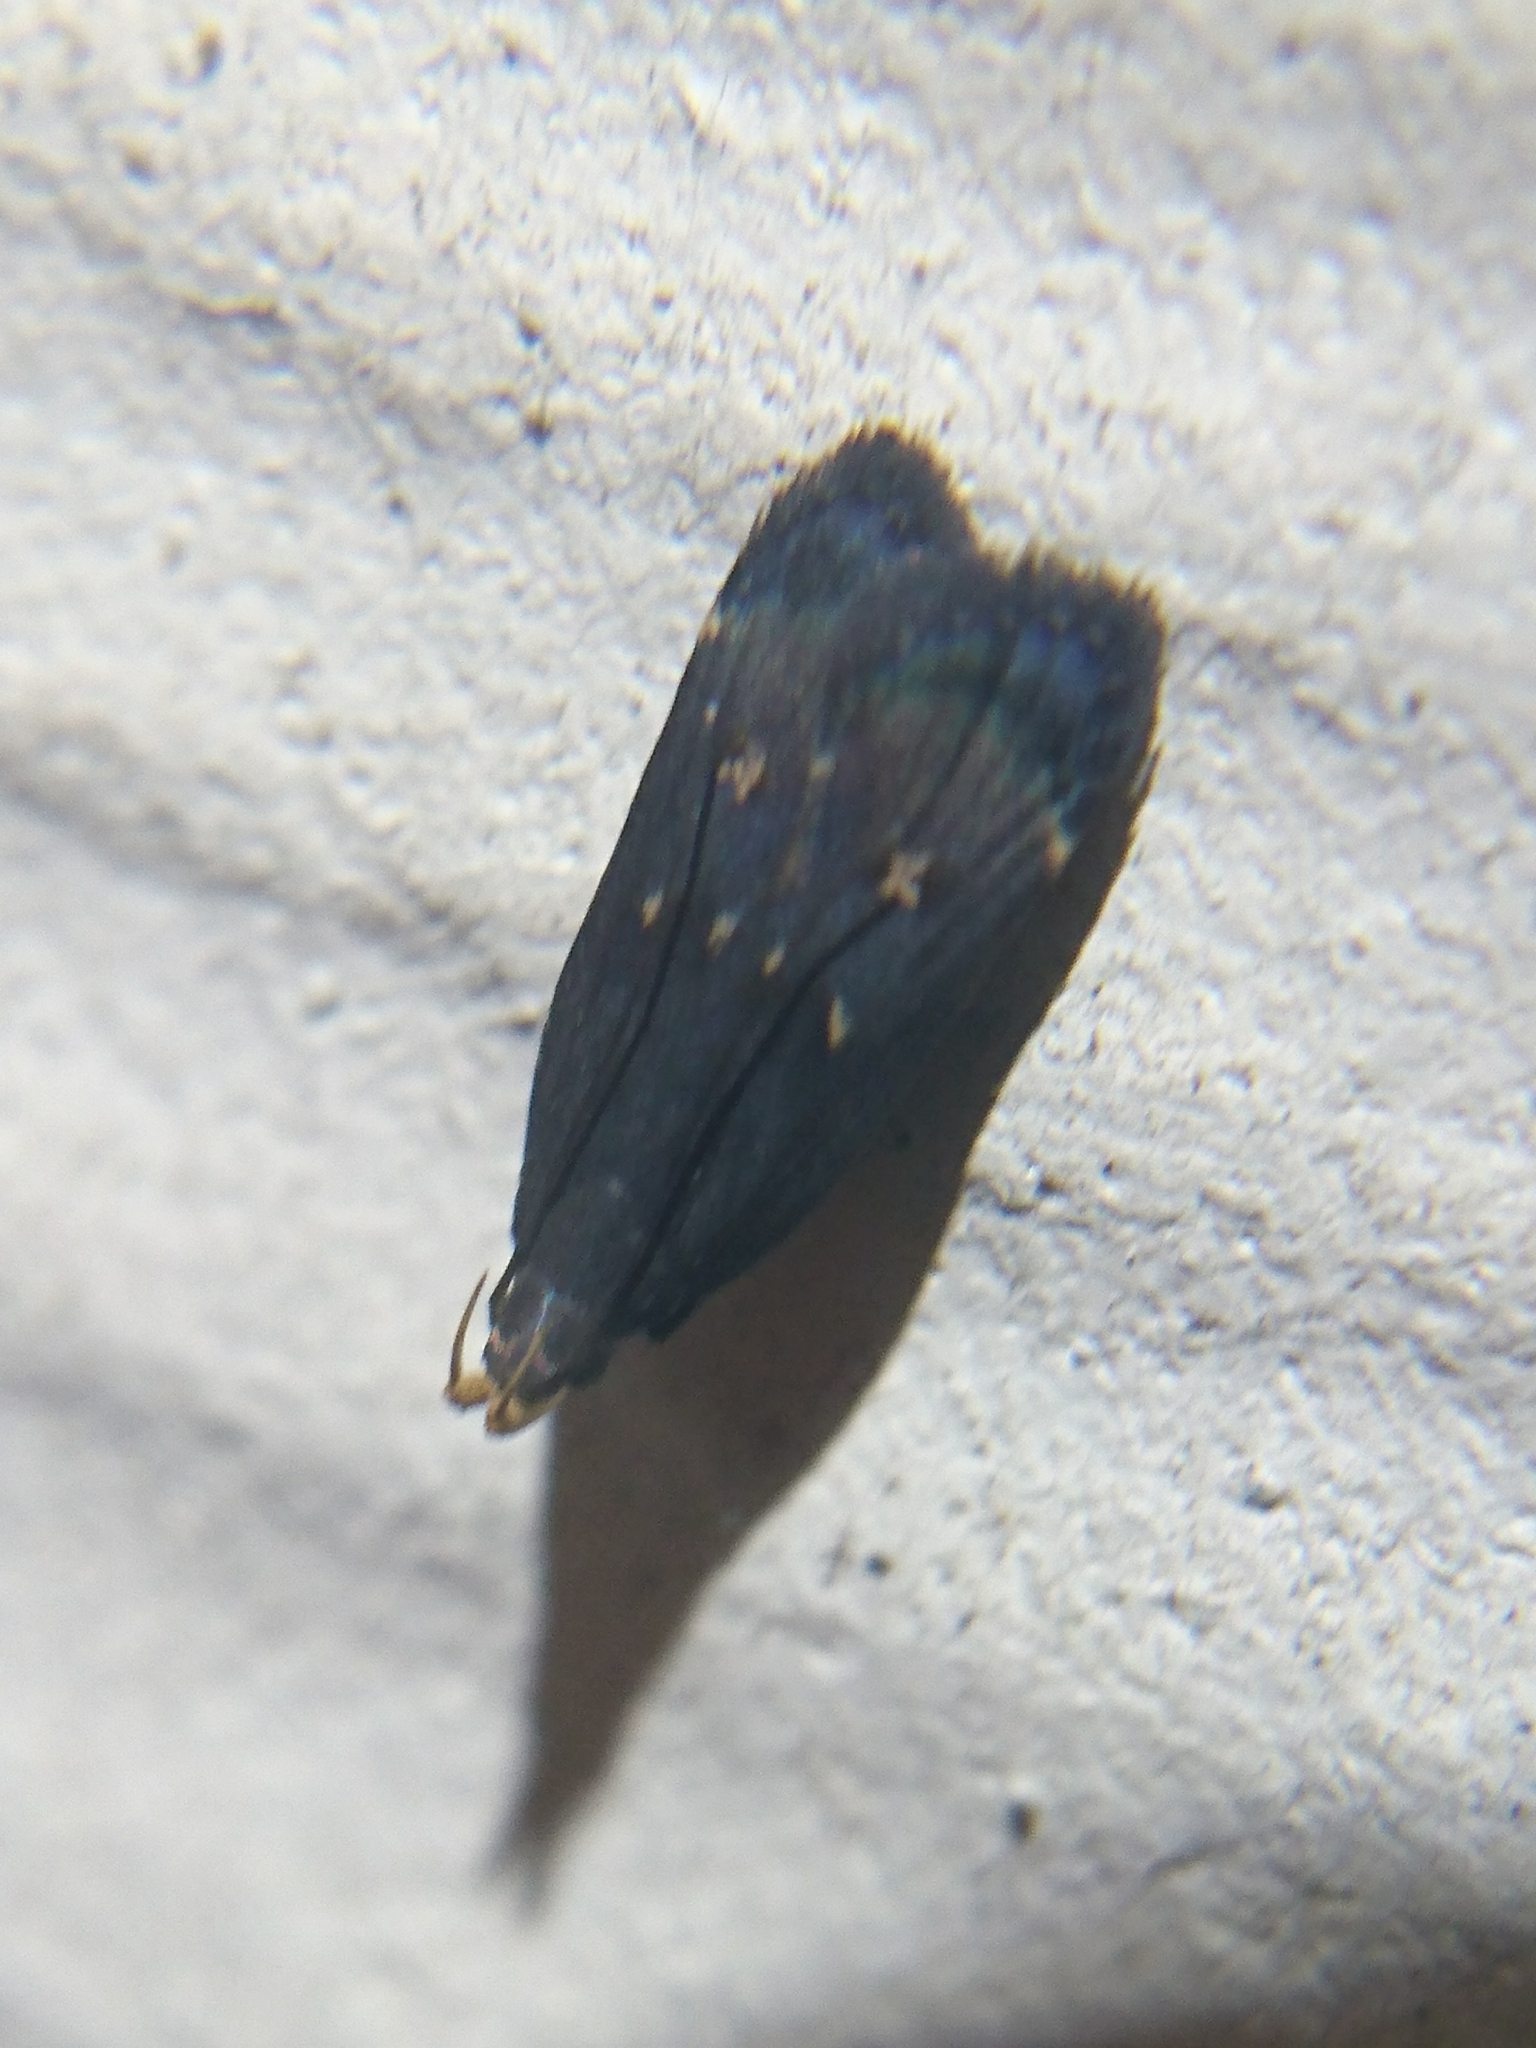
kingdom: Animalia
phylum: Arthropoda
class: Insecta
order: Lepidoptera
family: Gelechiidae
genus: Dichomeris
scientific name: Dichomeris juncidella
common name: Orange-dotted dichomeris moth
